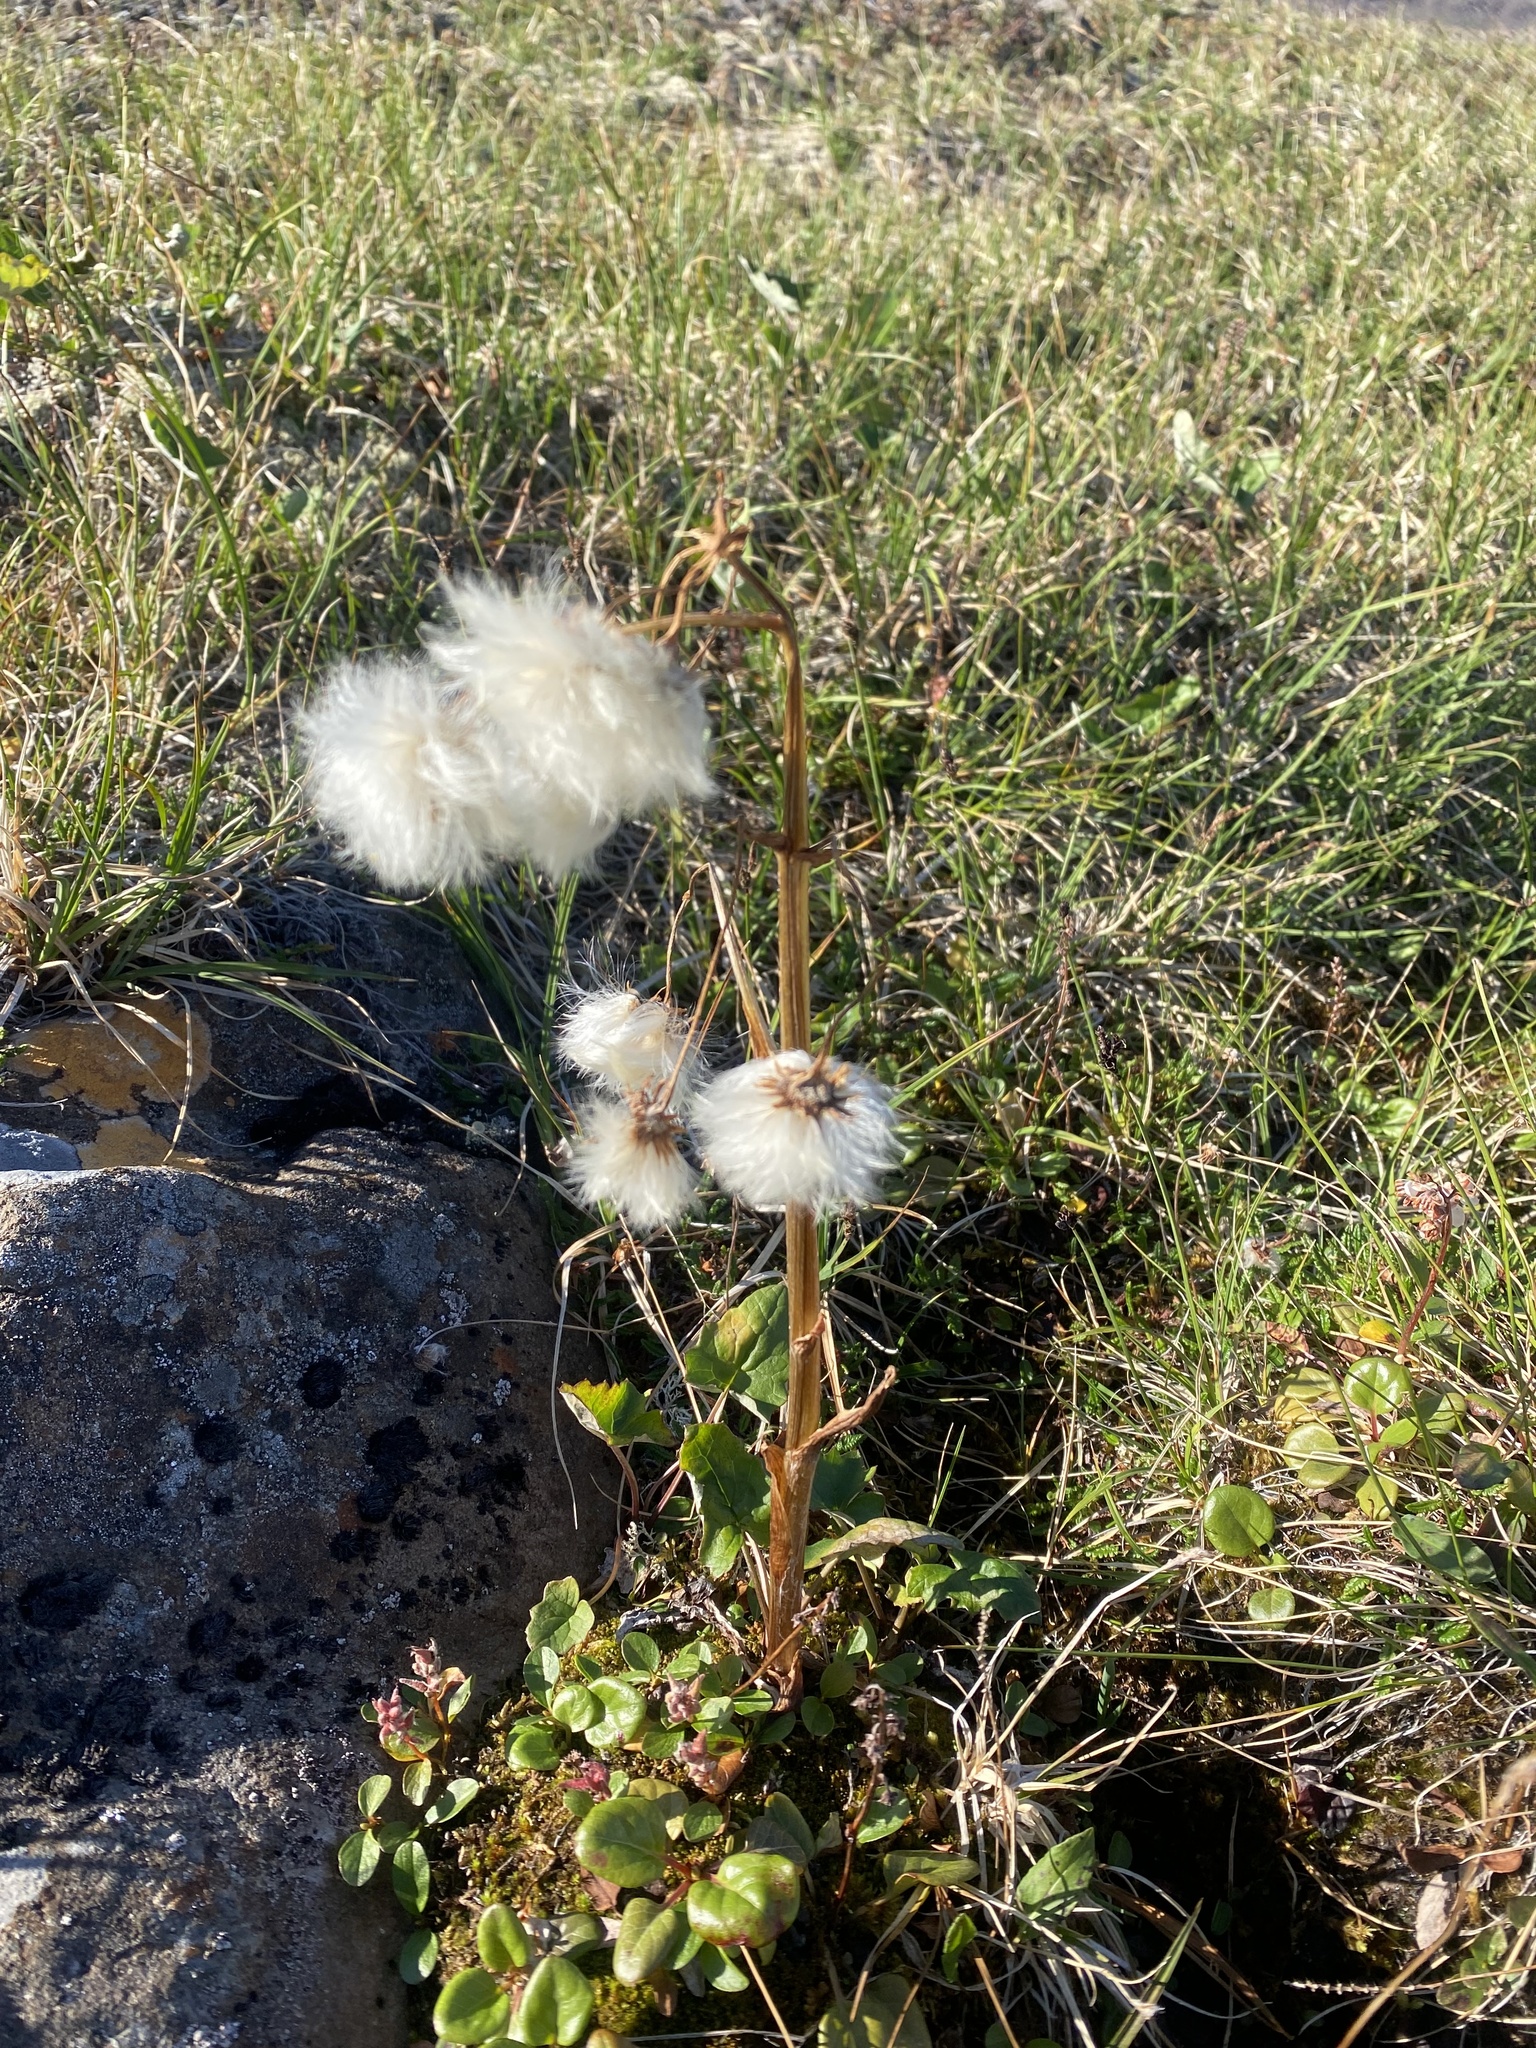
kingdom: Plantae
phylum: Tracheophyta
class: Magnoliopsida
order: Asterales
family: Asteraceae
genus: Petasites
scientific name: Petasites frigidus
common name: Arctic butterbur
